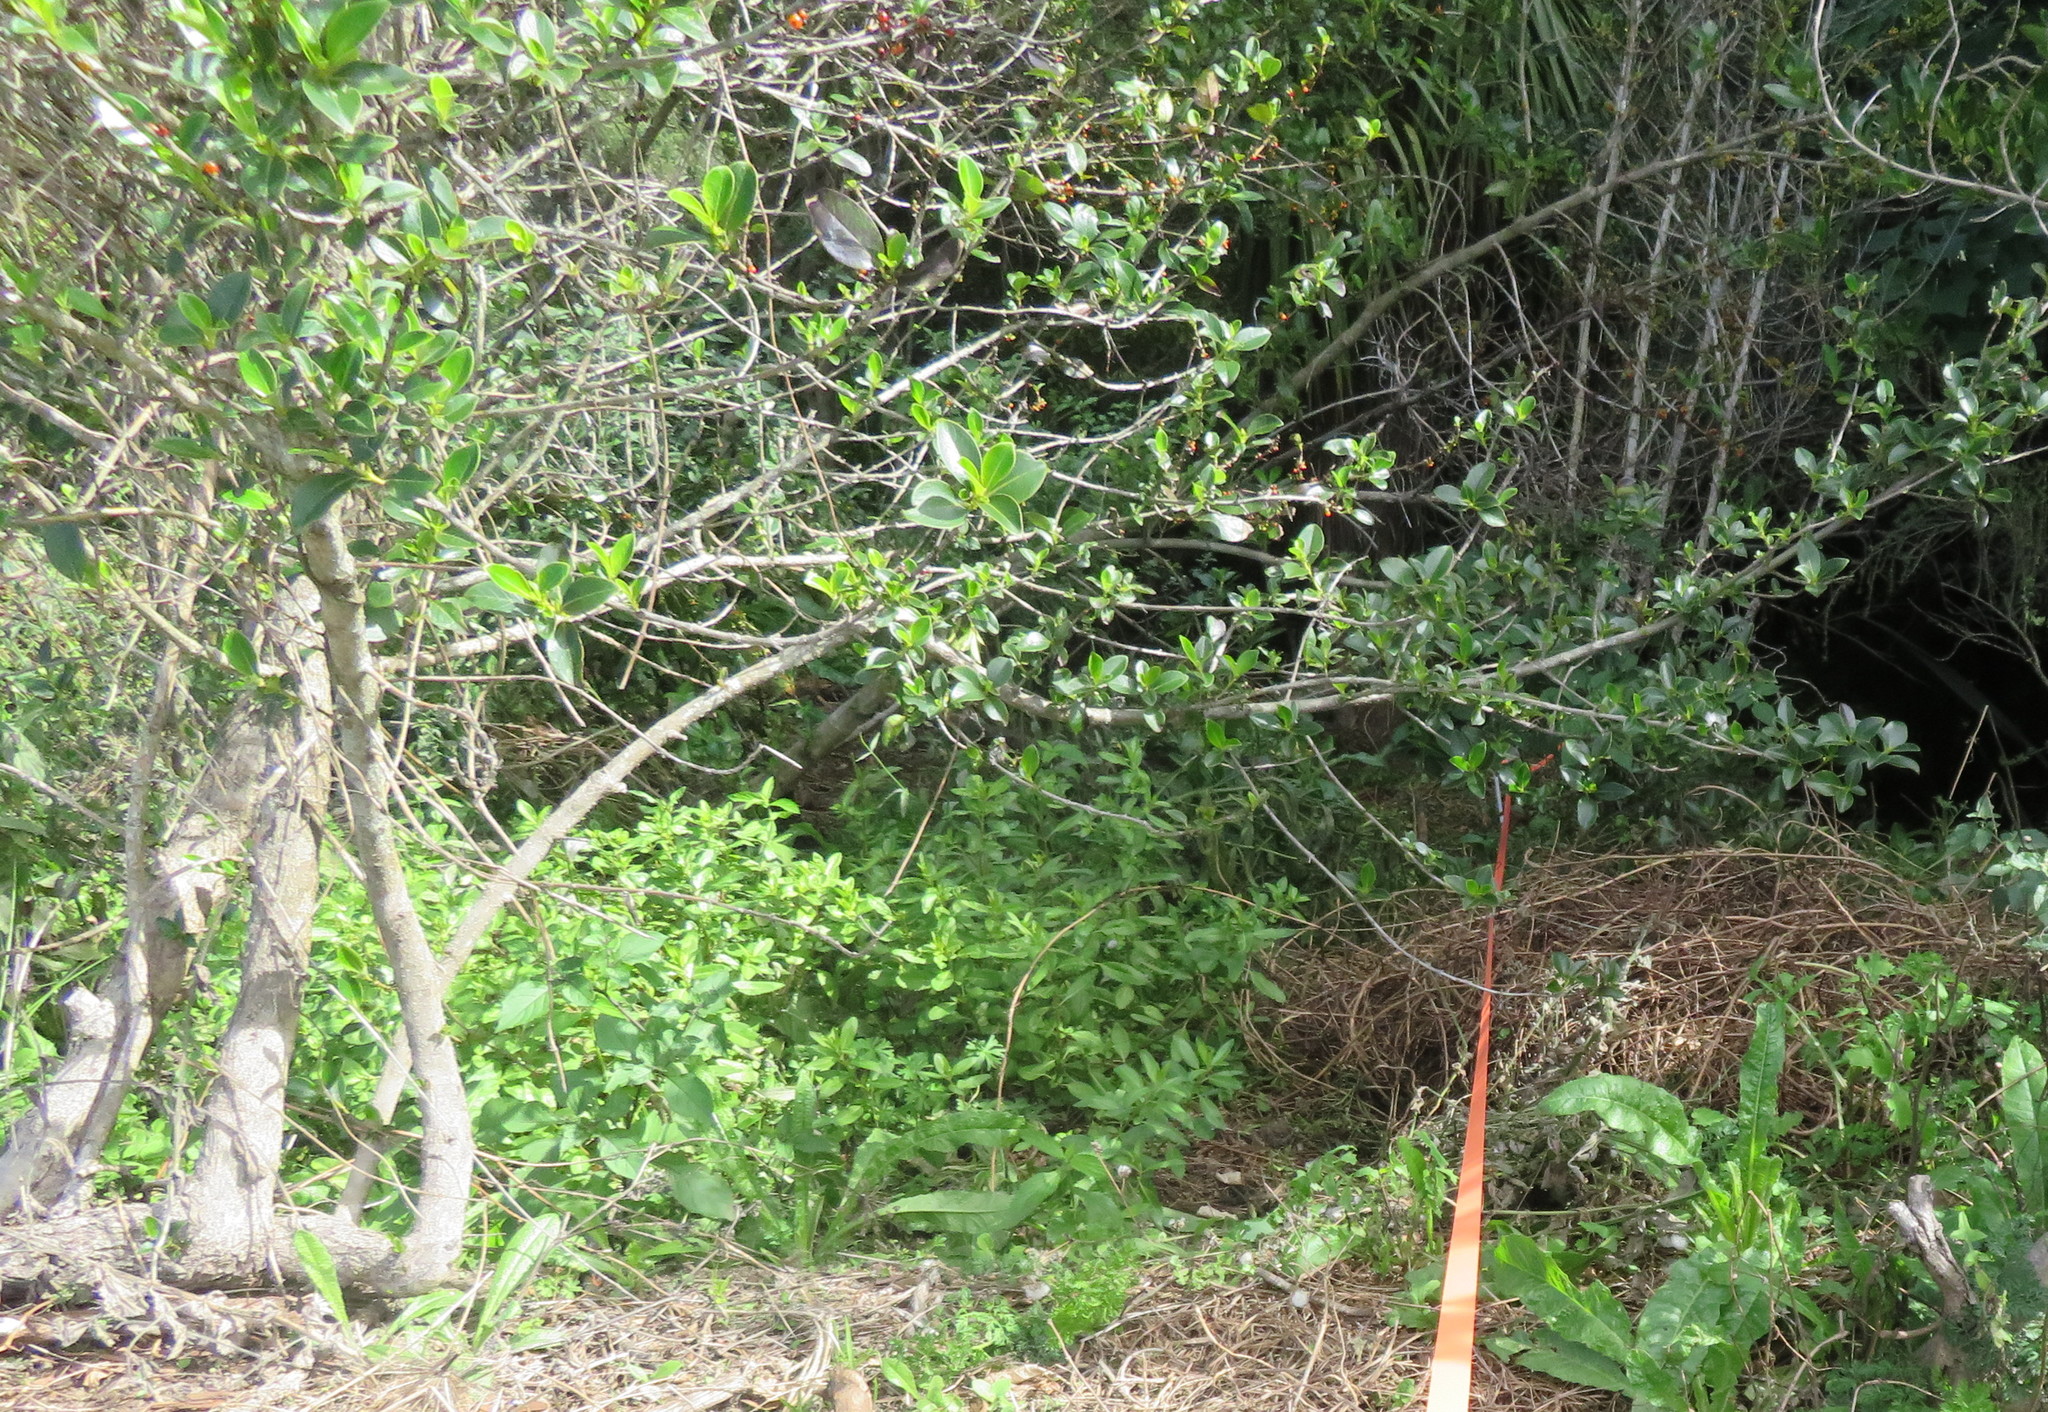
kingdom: Plantae
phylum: Tracheophyta
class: Magnoliopsida
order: Gentianales
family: Rubiaceae
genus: Coprosma
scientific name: Coprosma robusta
